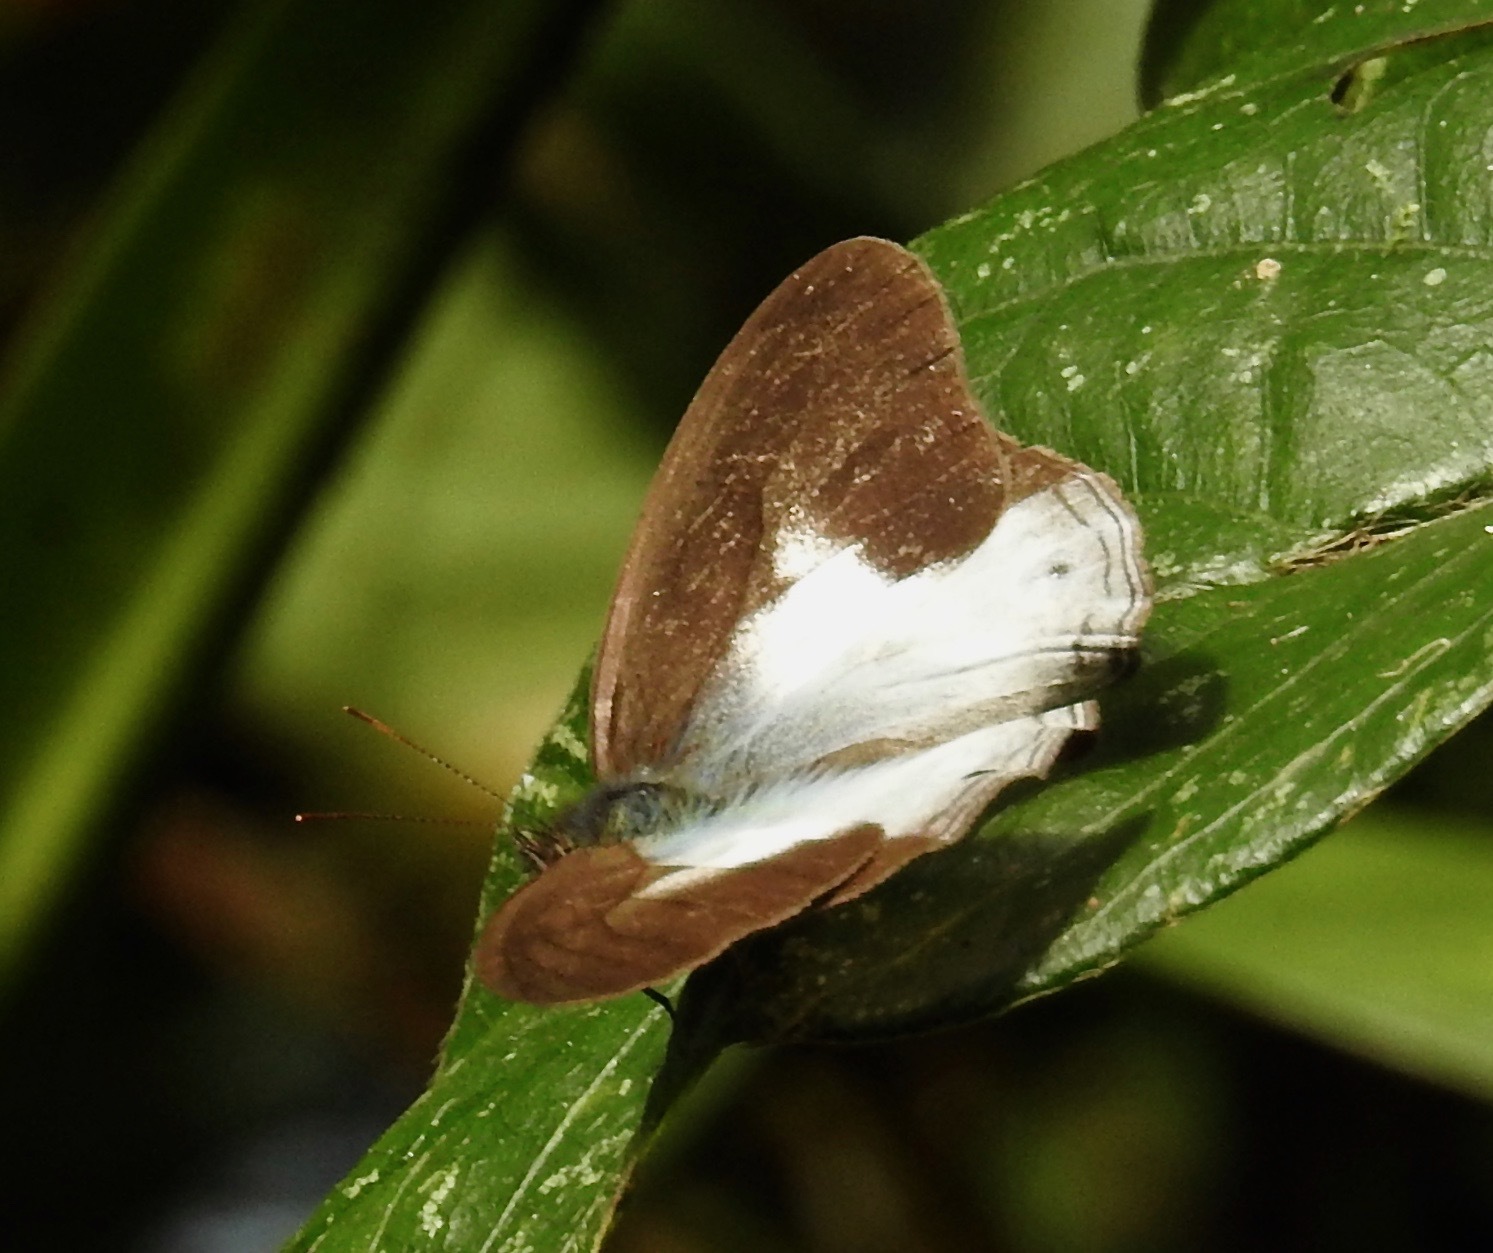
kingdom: Animalia
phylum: Arthropoda
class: Insecta
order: Lepidoptera
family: Nymphalidae
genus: Pareuptychia
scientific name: Pareuptychia metaleuca
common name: White-banded satyr
